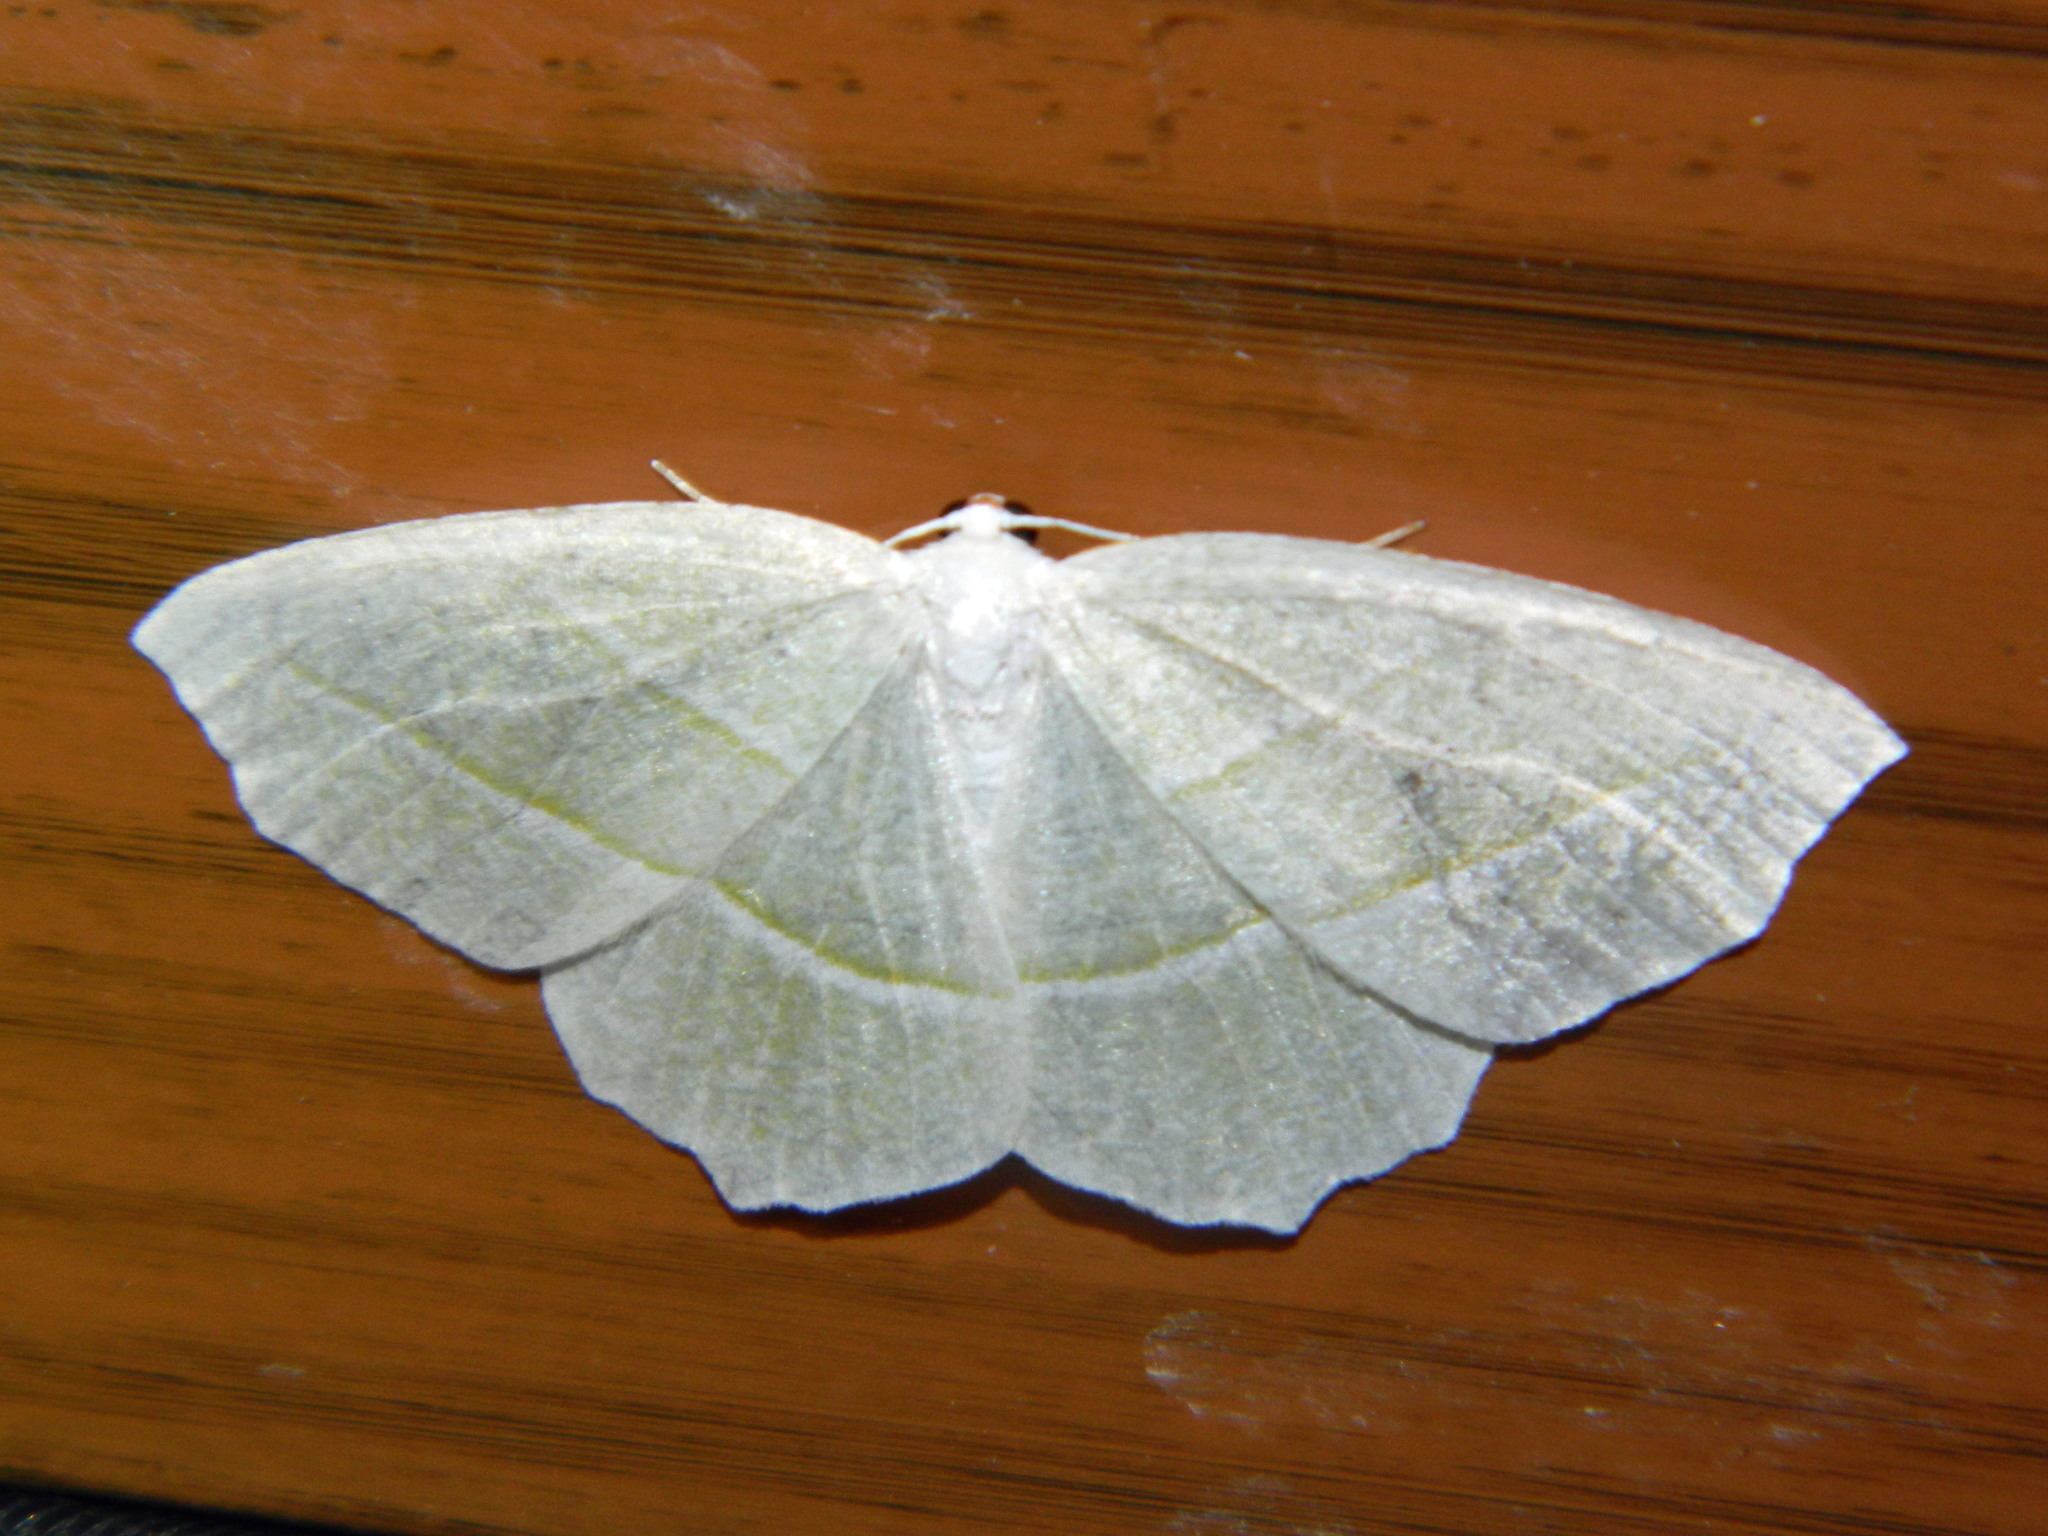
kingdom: Animalia
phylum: Arthropoda
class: Insecta
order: Lepidoptera
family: Geometridae
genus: Campaea
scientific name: Campaea perlata
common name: Fringed looper
